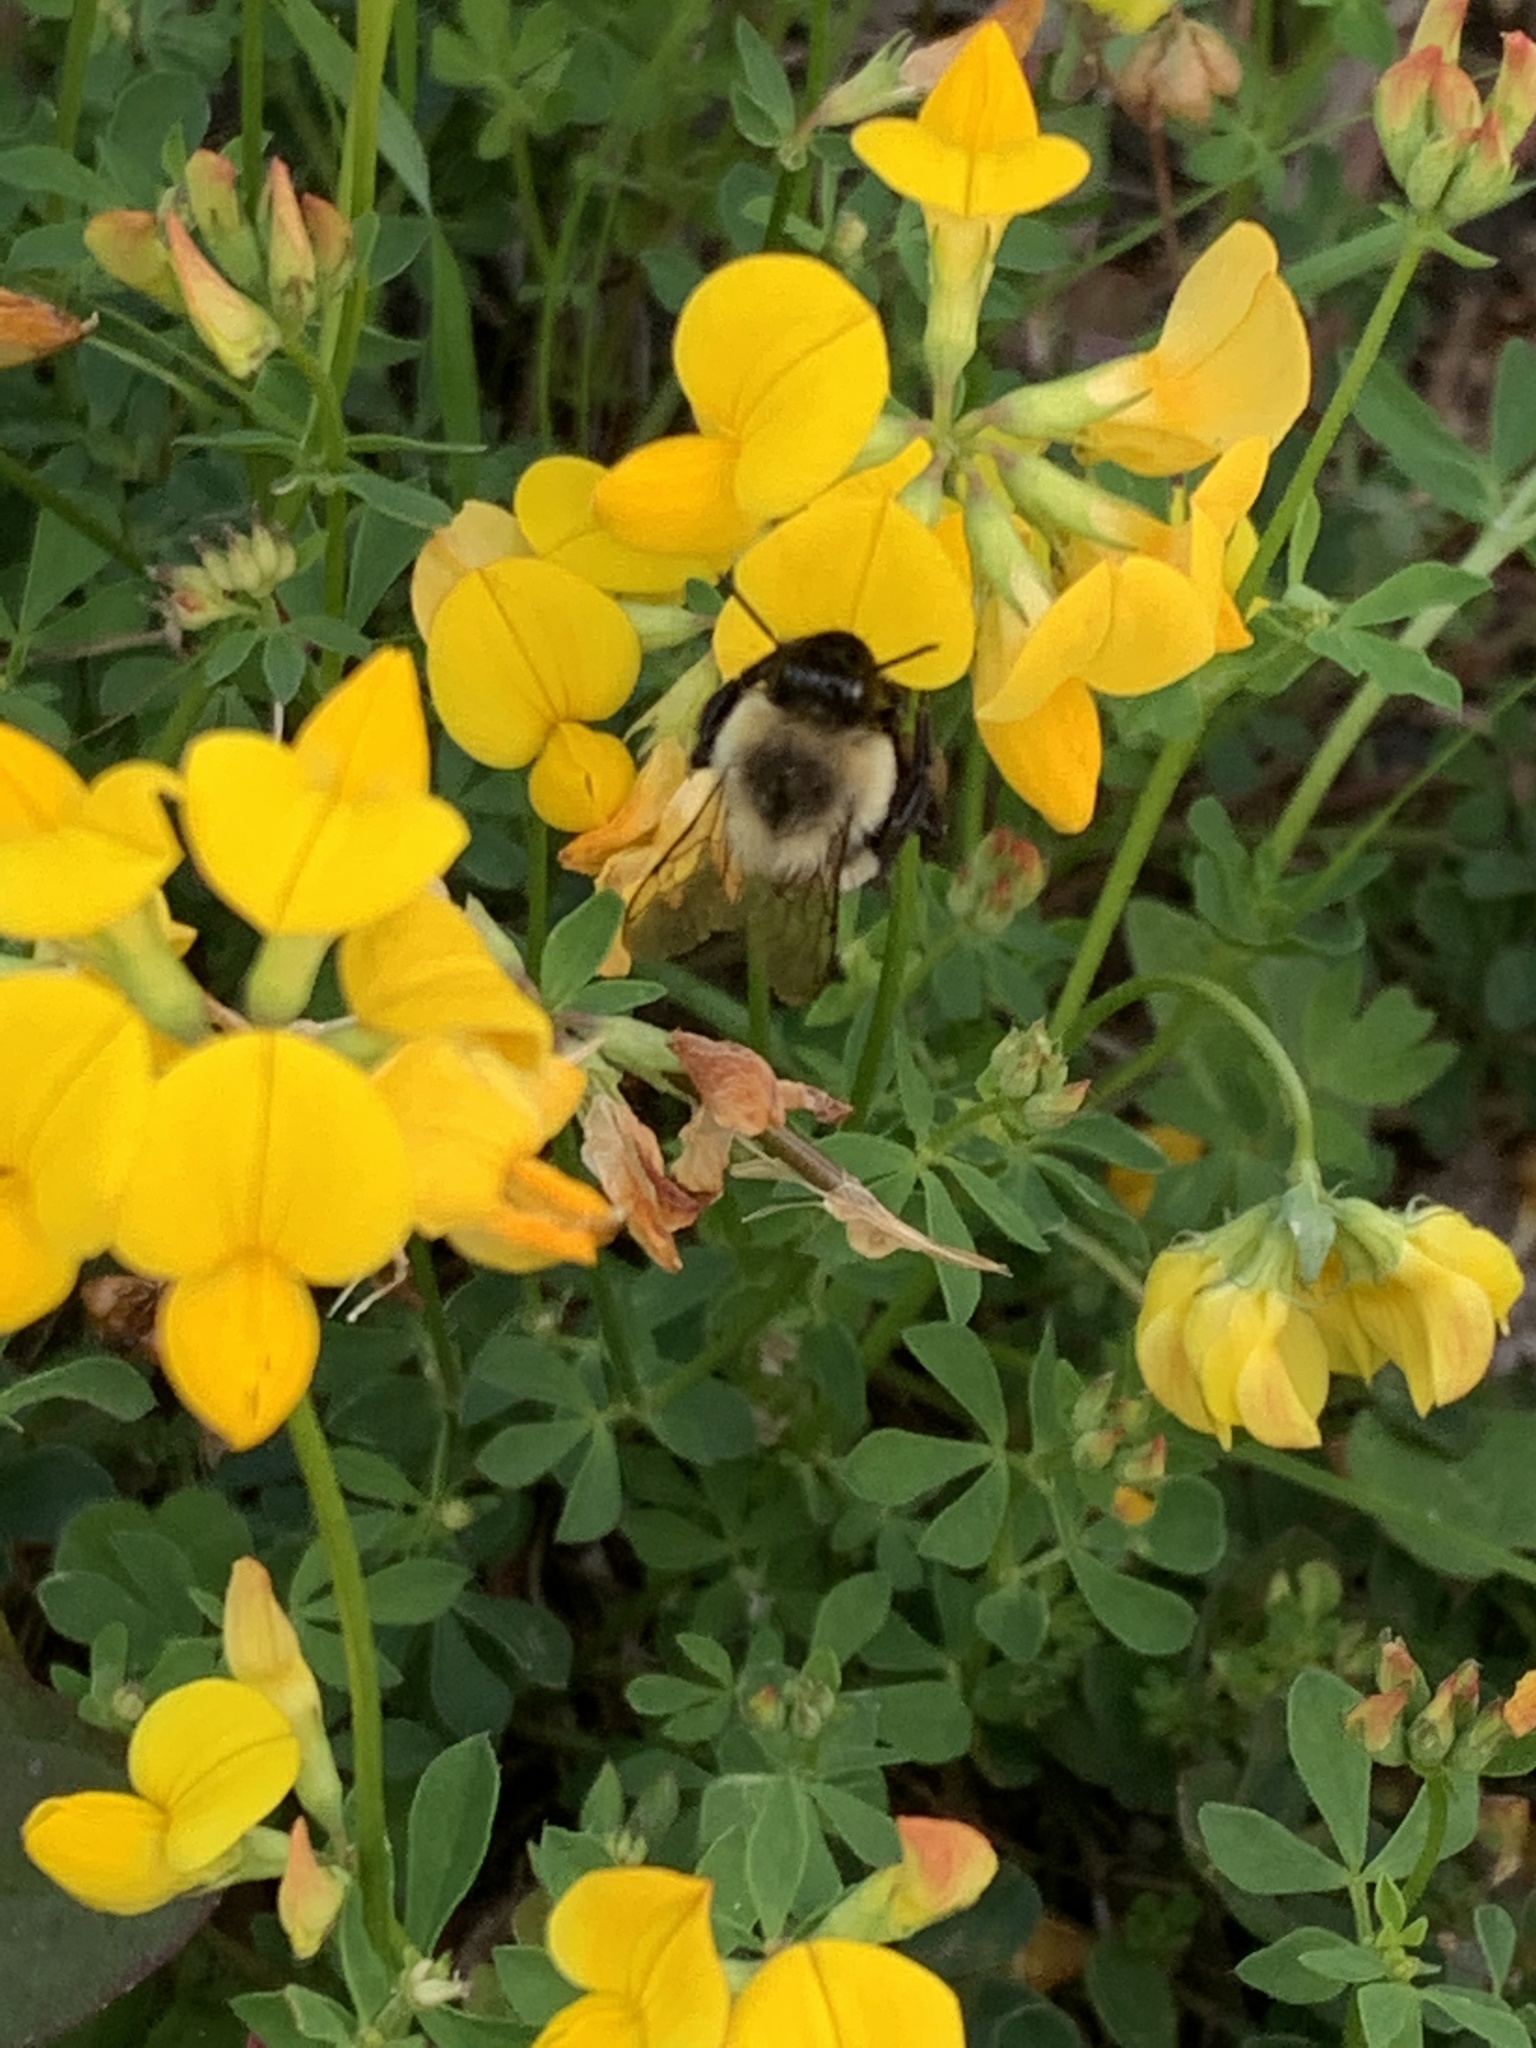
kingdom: Animalia
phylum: Arthropoda
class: Insecta
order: Hymenoptera
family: Apidae
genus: Bombus
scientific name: Bombus impatiens
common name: Common eastern bumble bee
